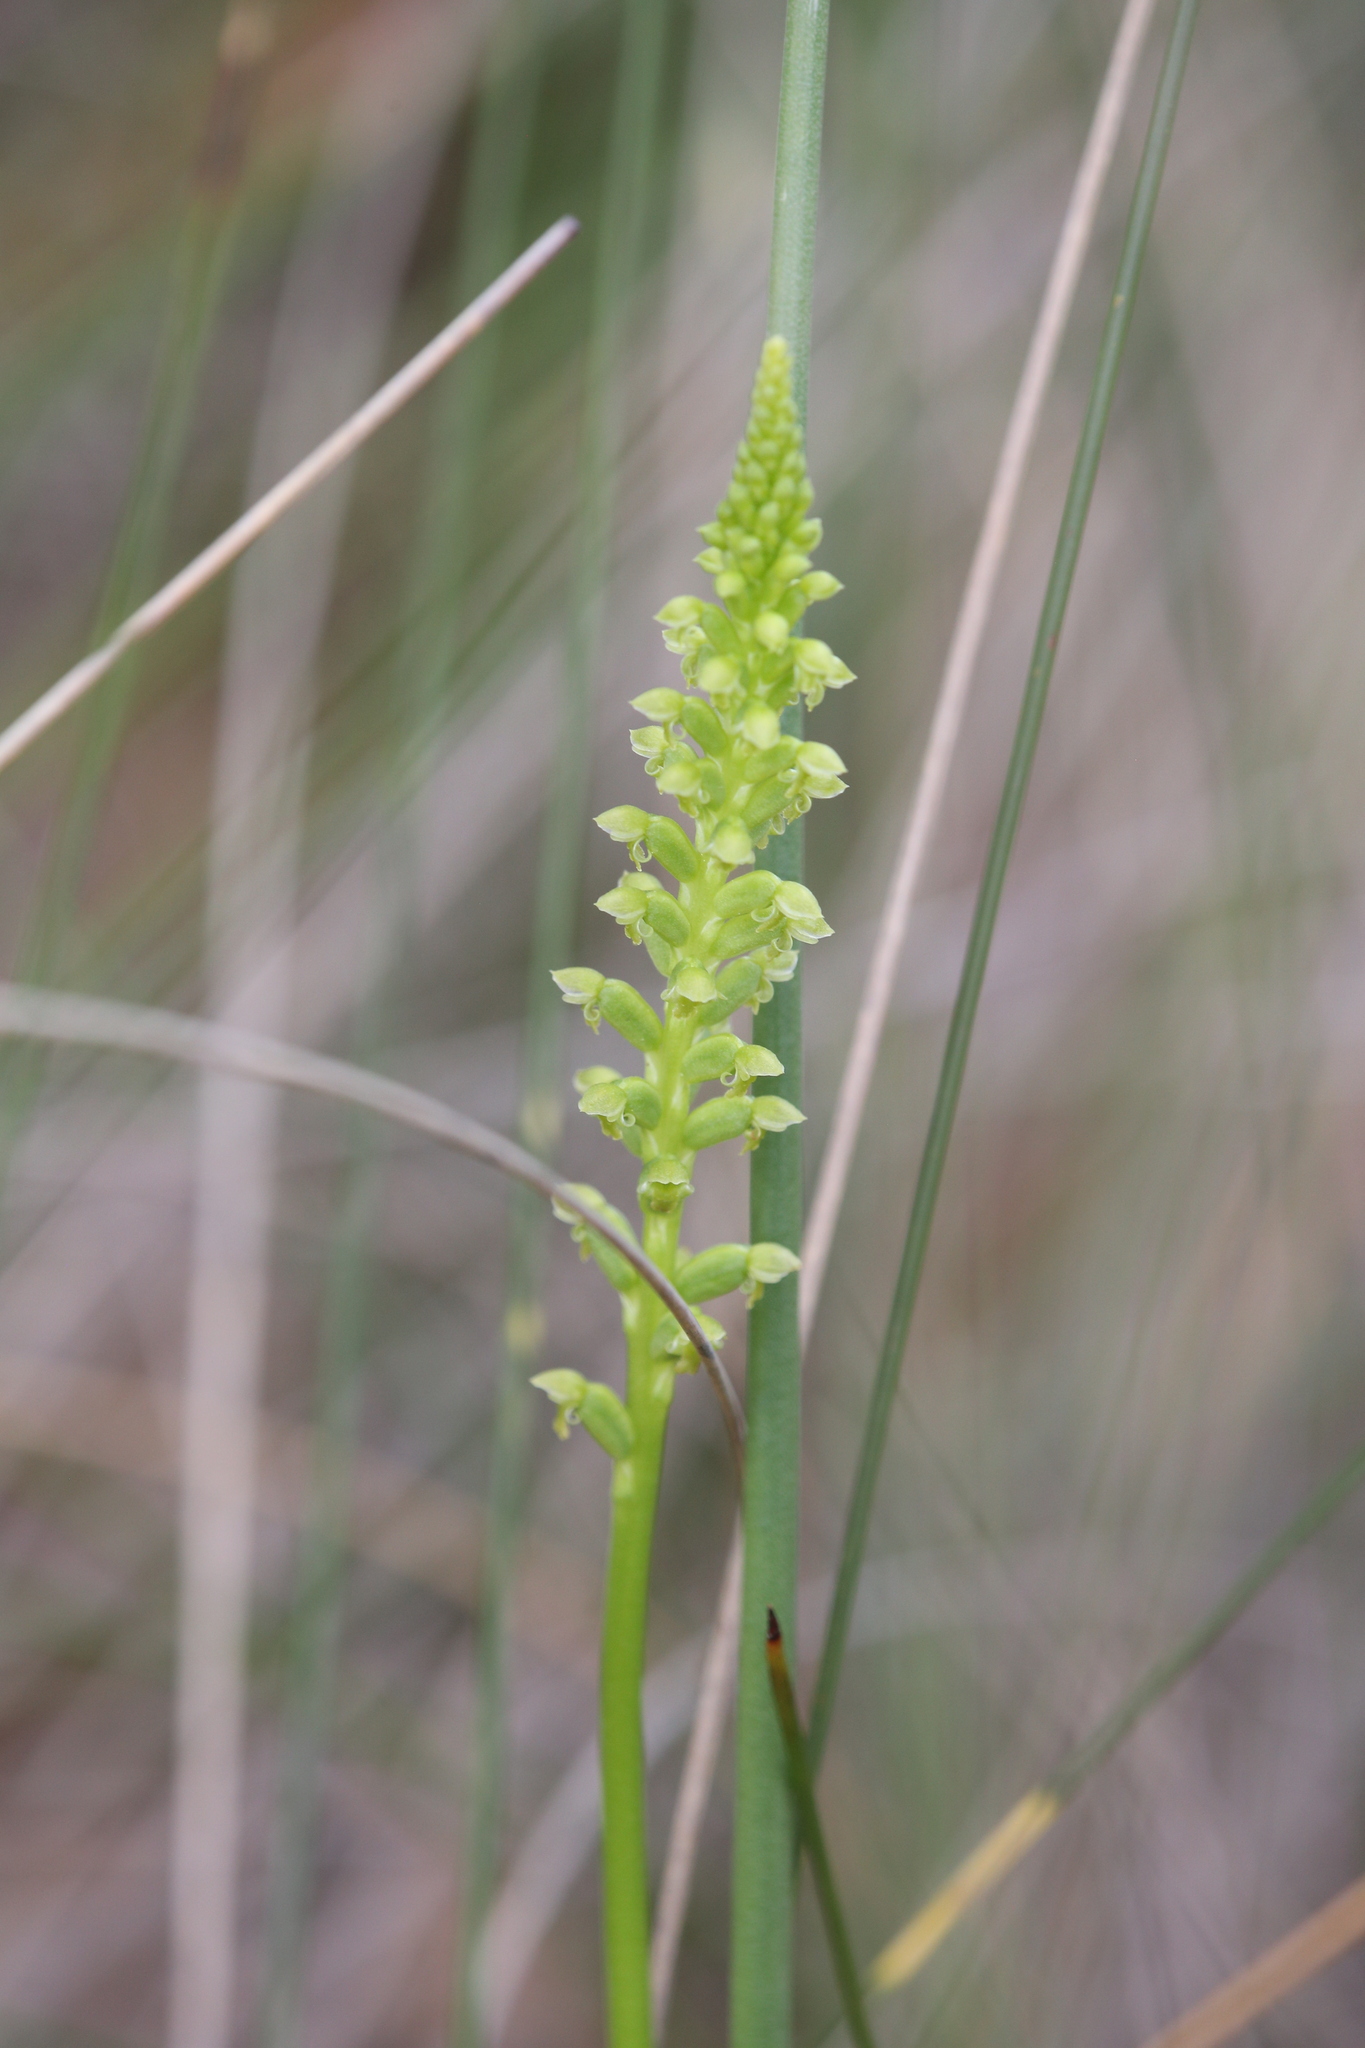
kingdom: Plantae
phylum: Tracheophyta
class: Liliopsida
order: Asparagales
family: Orchidaceae
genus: Microtis
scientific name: Microtis media
